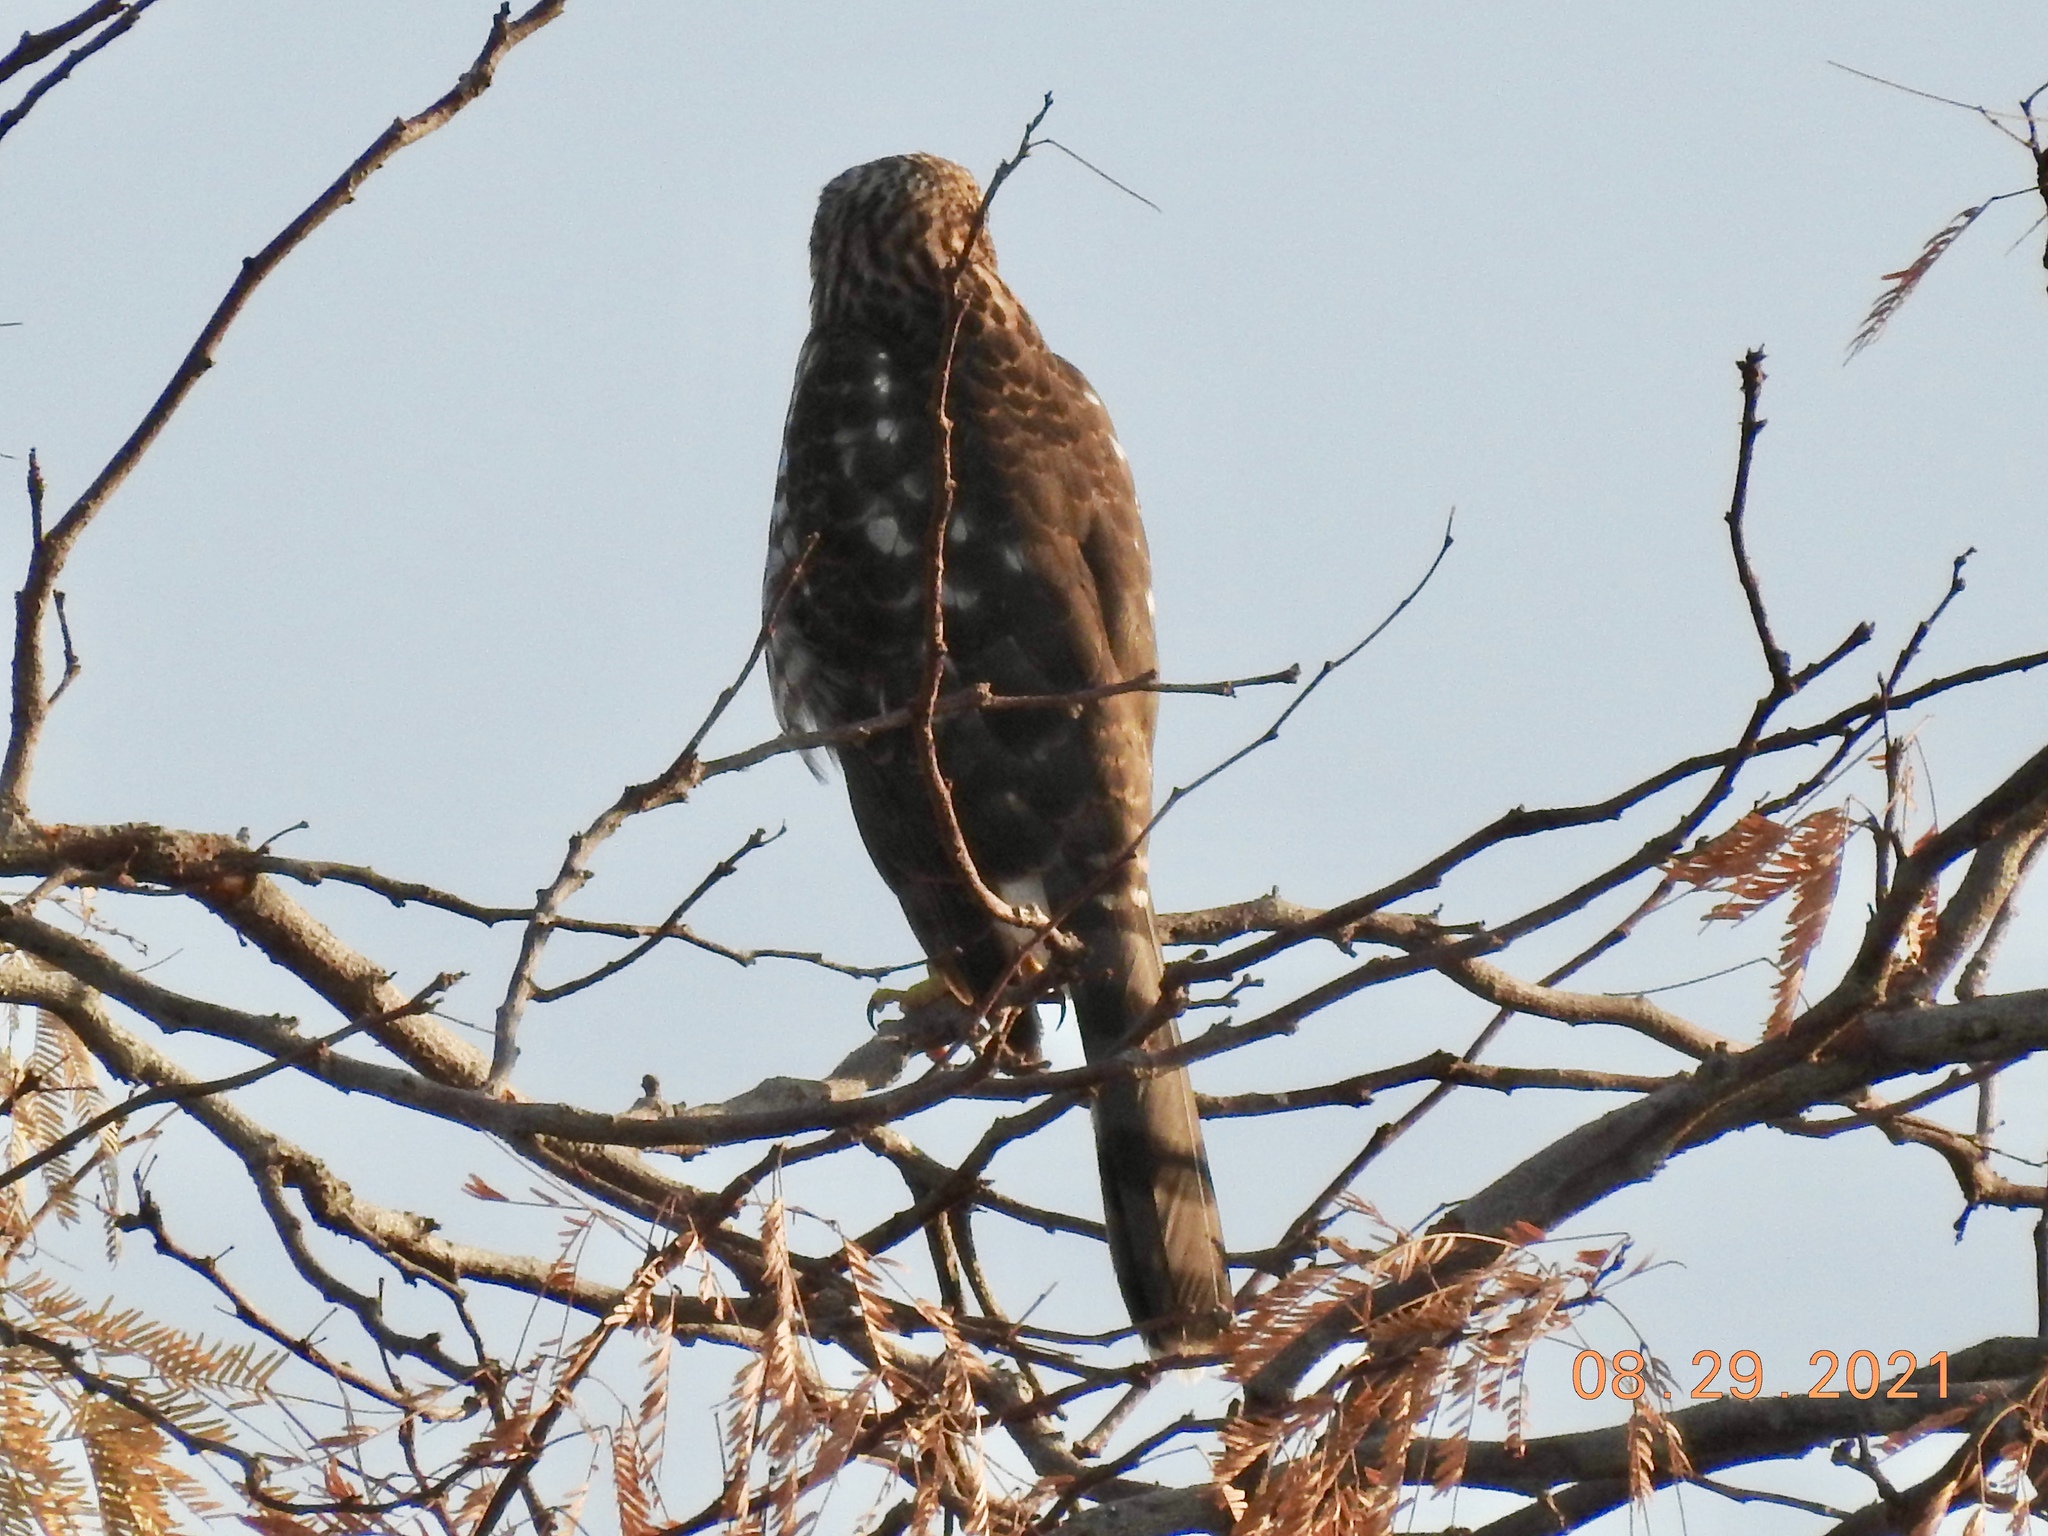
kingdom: Animalia
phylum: Chordata
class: Aves
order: Accipitriformes
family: Accipitridae
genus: Accipiter
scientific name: Accipiter cooperii
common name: Cooper's hawk
